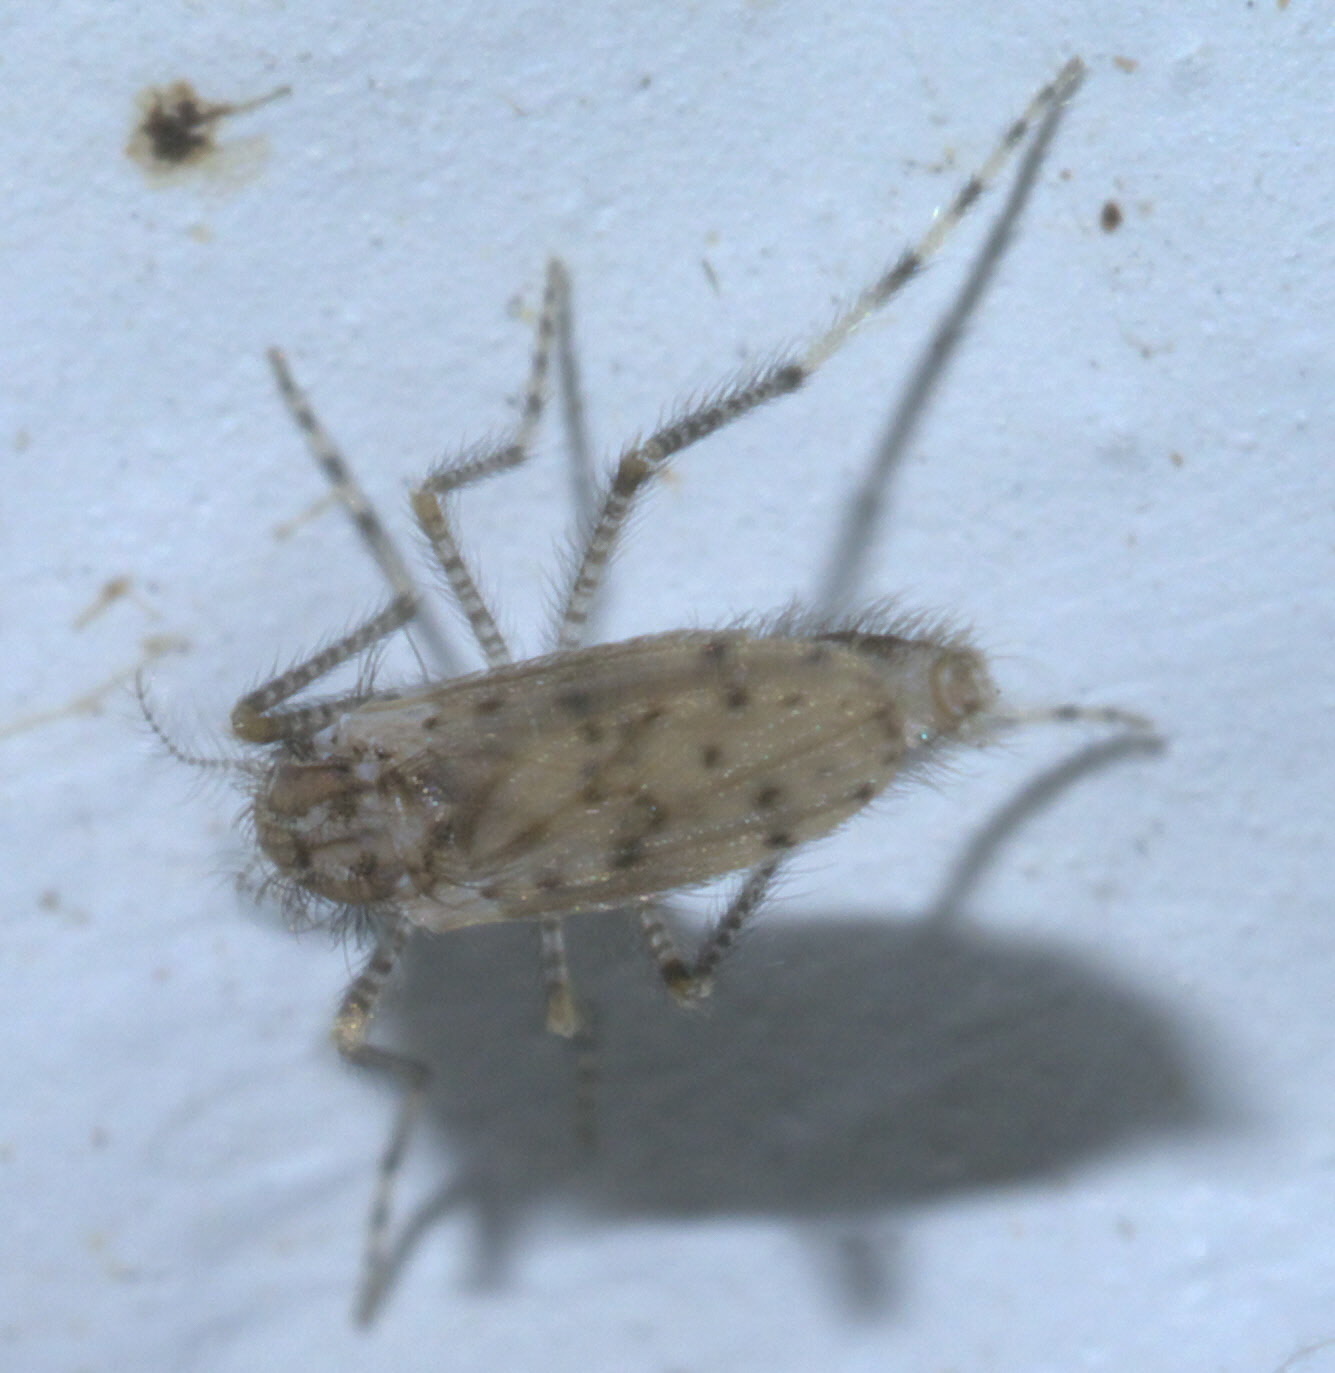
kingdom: Animalia
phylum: Arthropoda
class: Insecta
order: Diptera
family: Chaoboridae
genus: Chaoborus
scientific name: Chaoborus punctipennis
